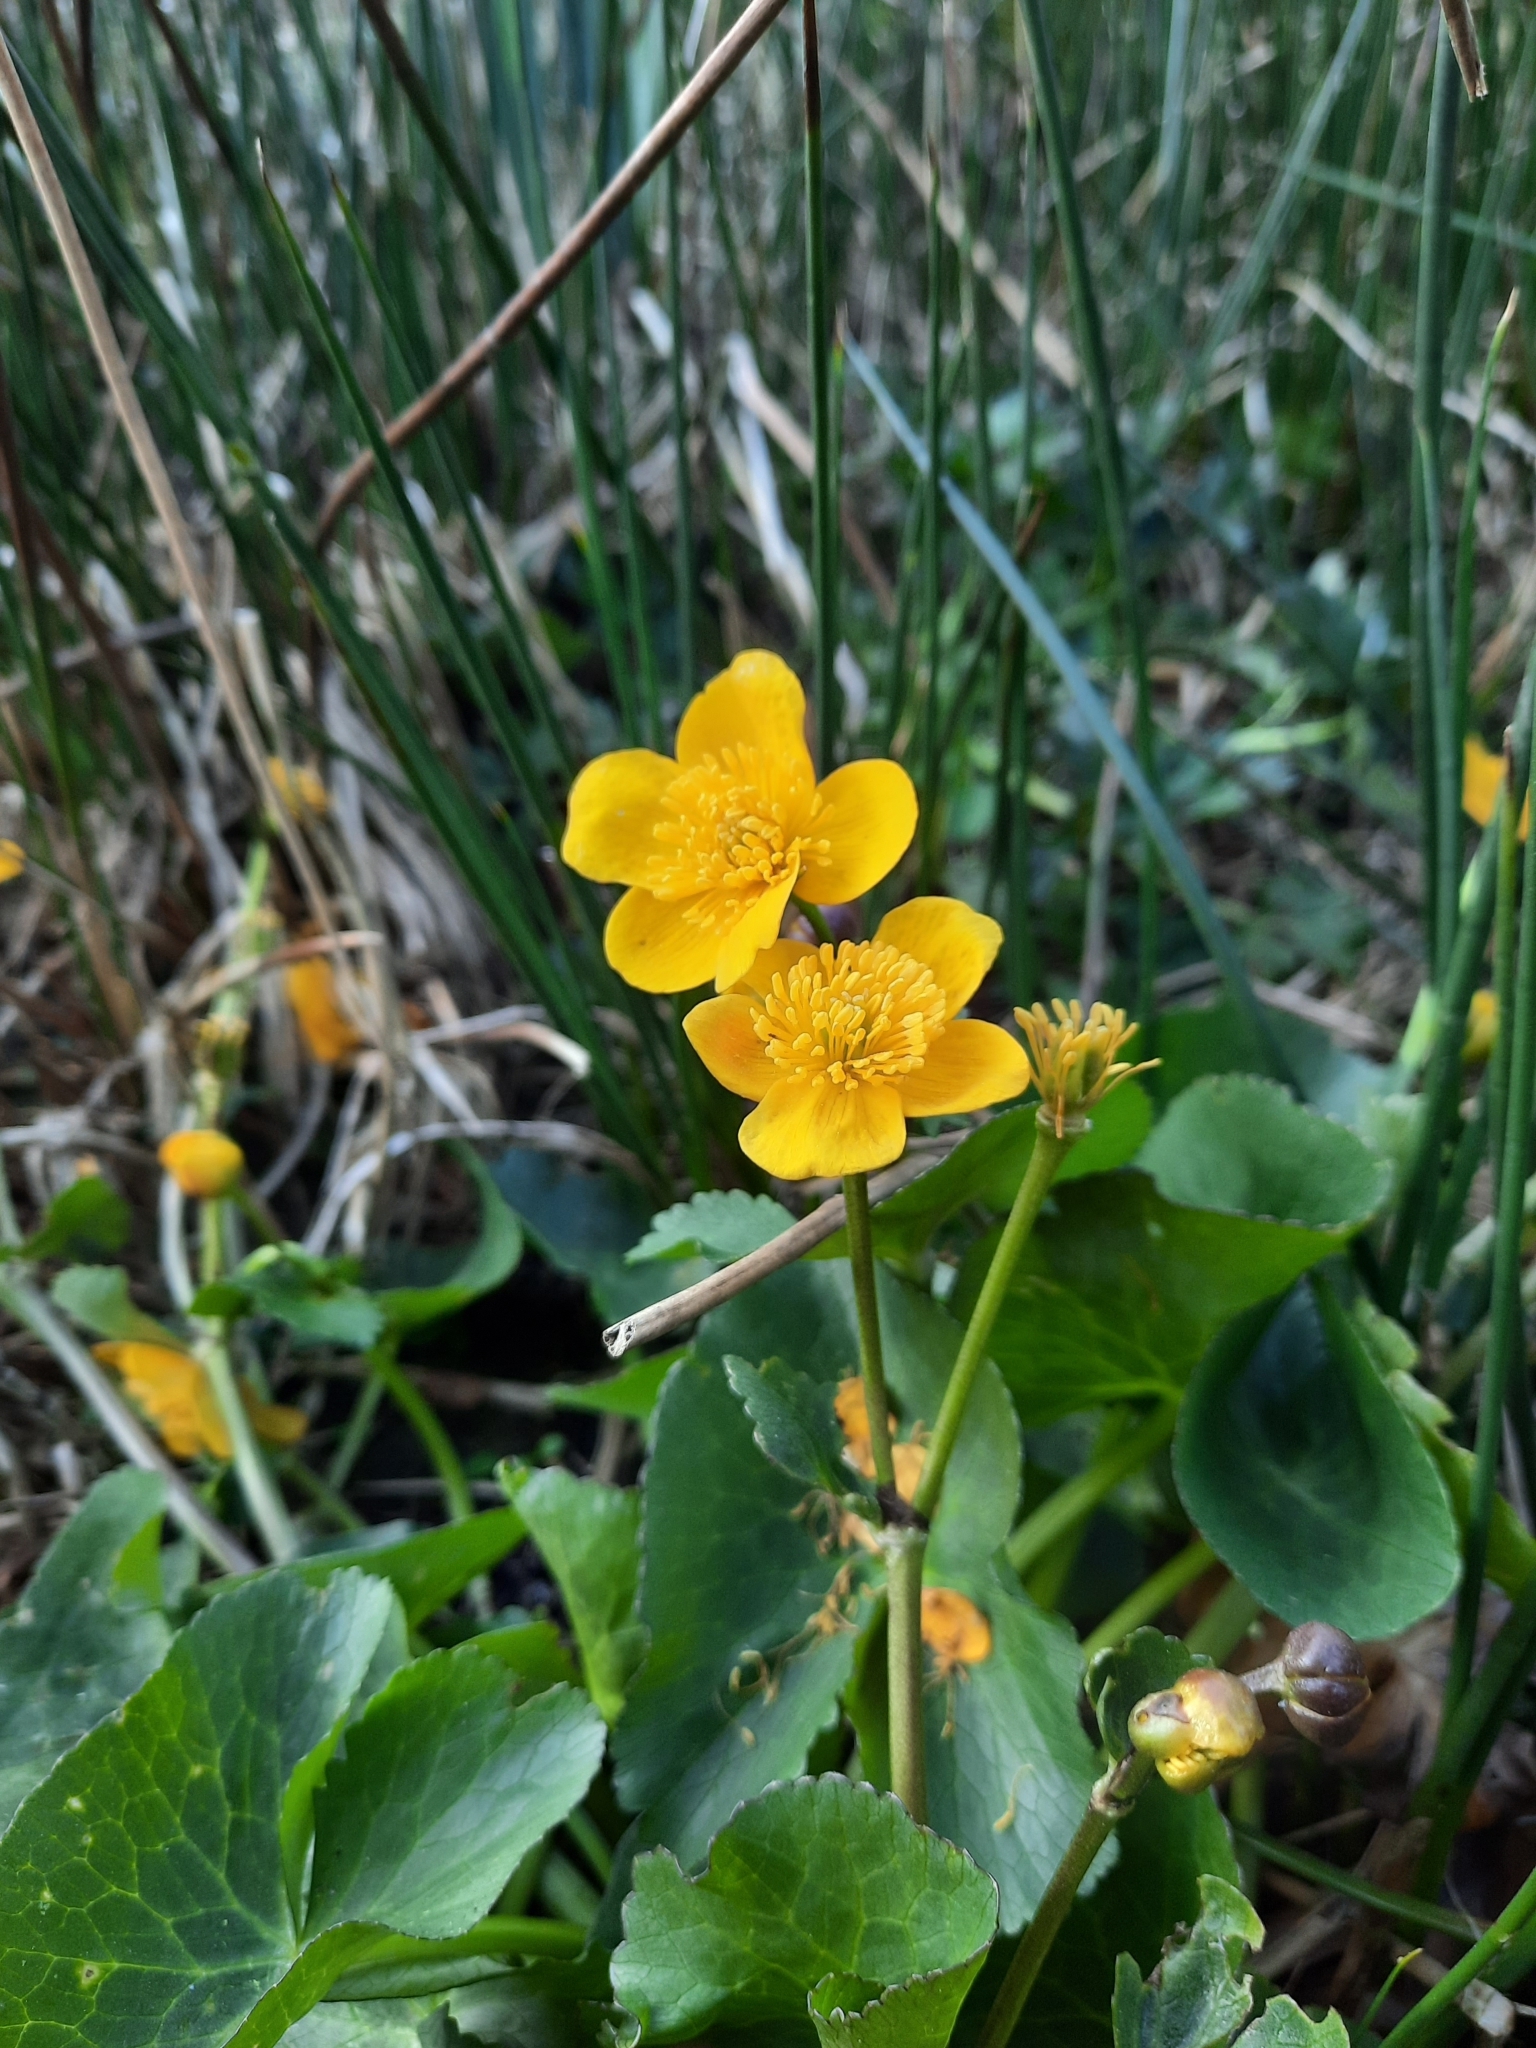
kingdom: Plantae
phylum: Tracheophyta
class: Magnoliopsida
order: Ranunculales
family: Ranunculaceae
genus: Caltha
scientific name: Caltha palustris
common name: Marsh marigold
